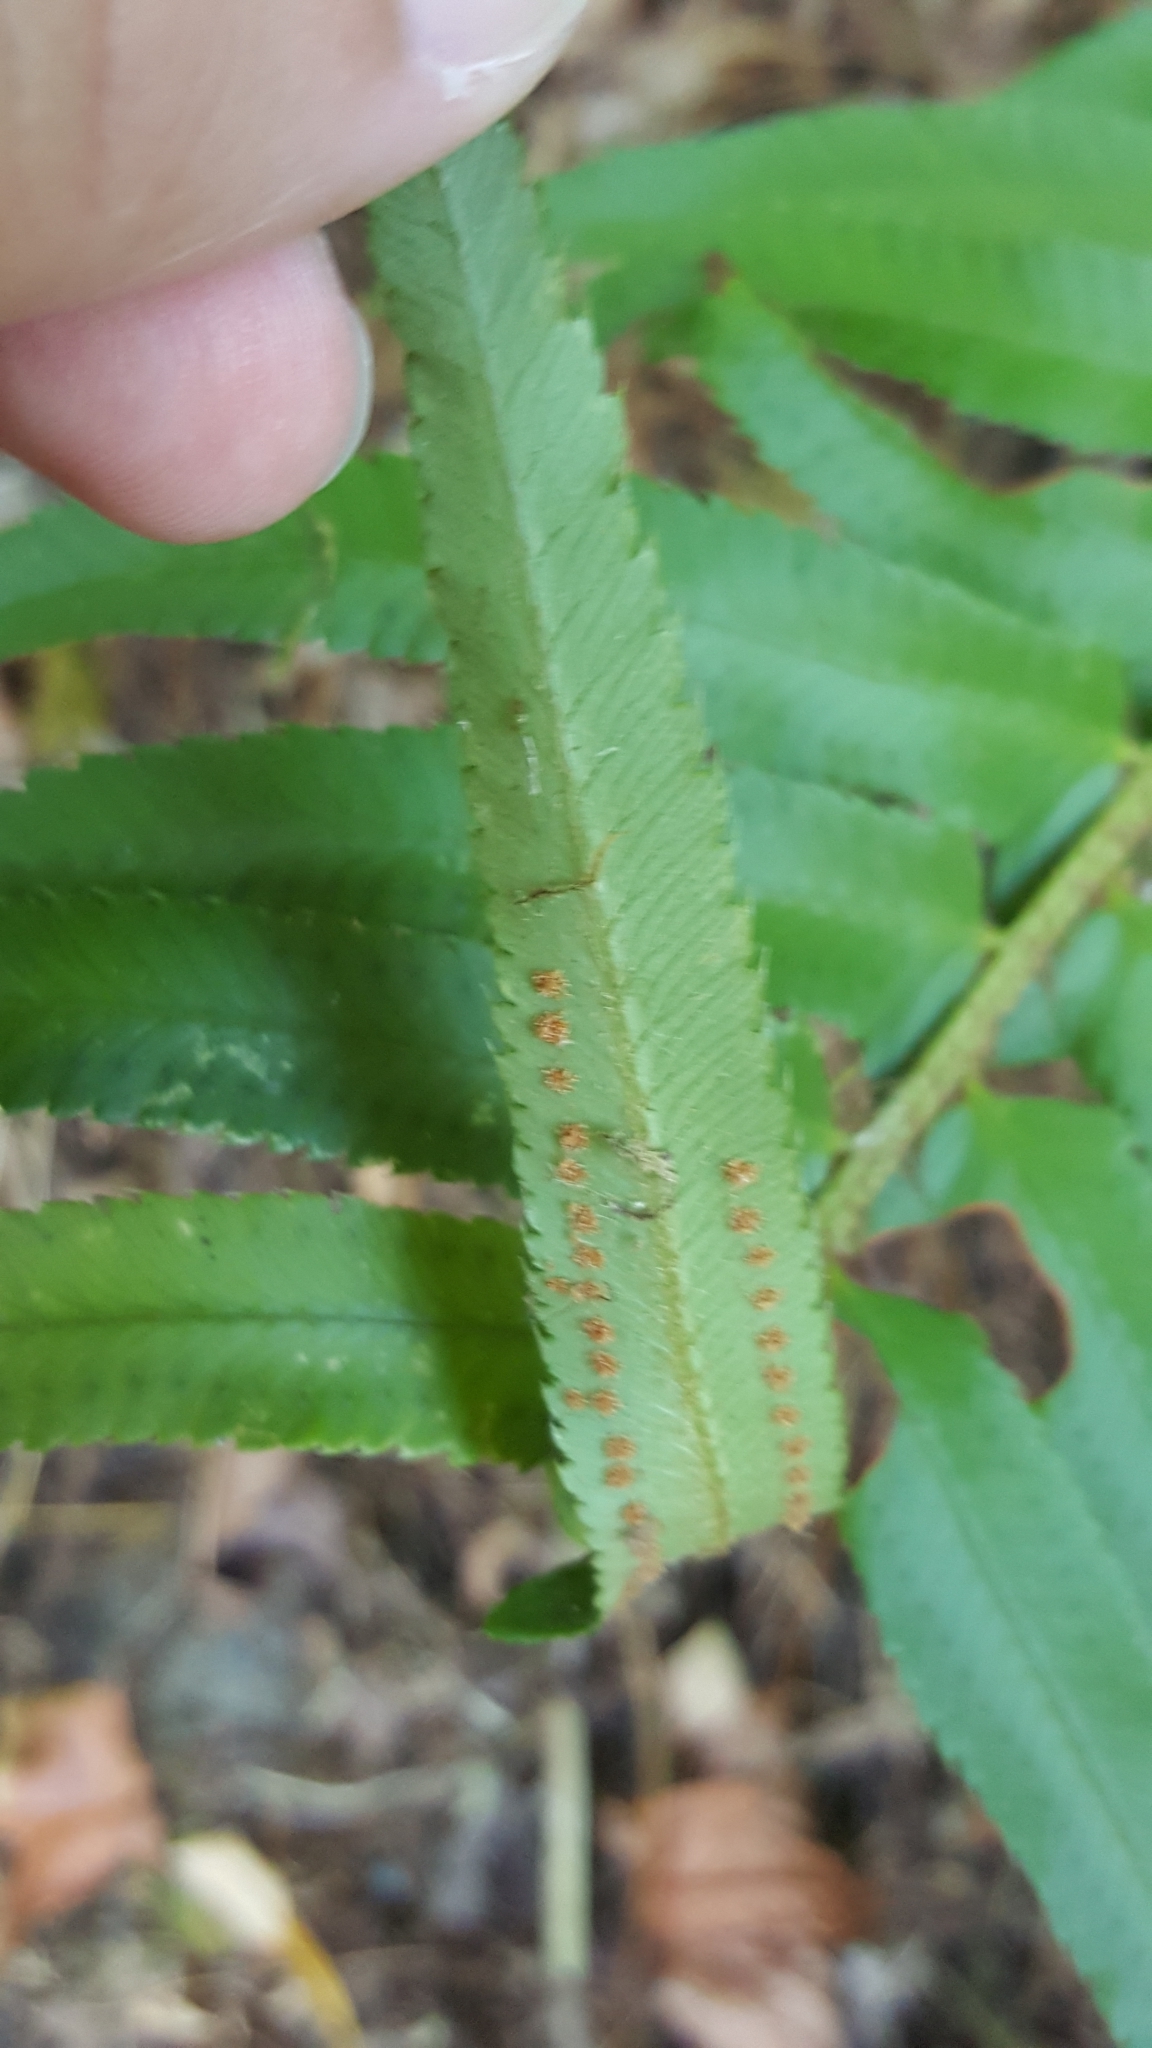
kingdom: Plantae
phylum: Tracheophyta
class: Polypodiopsida
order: Polypodiales
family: Dryopteridaceae
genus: Polystichum
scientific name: Polystichum munitum
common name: Western sword-fern
